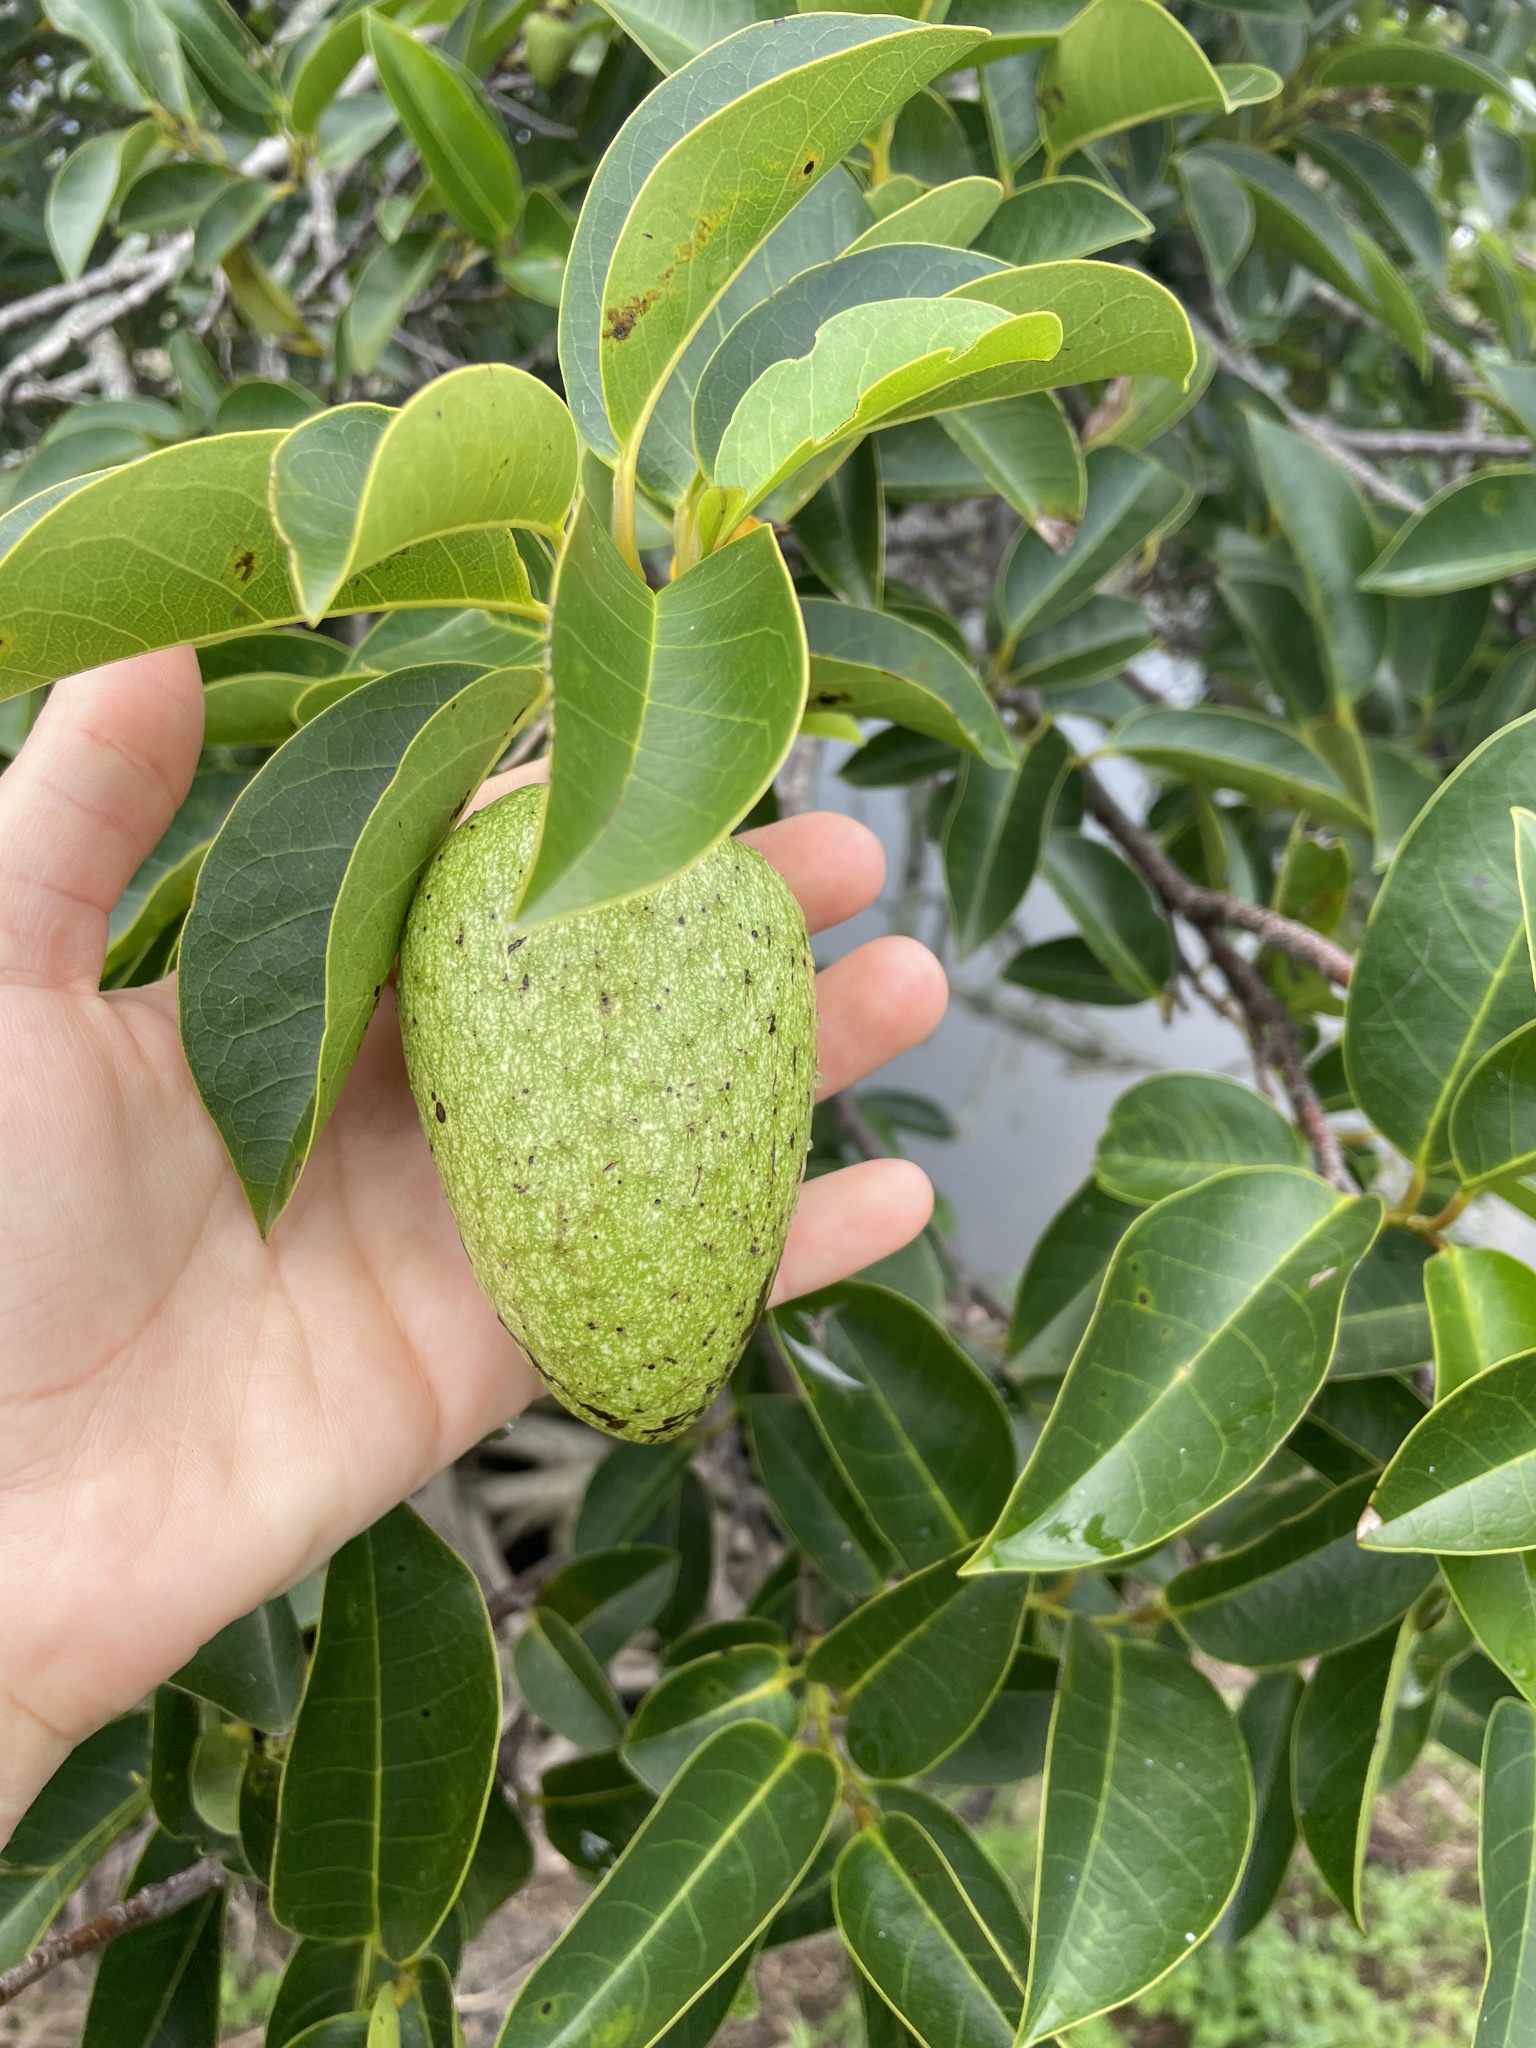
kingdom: Plantae
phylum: Tracheophyta
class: Magnoliopsida
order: Magnoliales
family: Annonaceae
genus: Annona
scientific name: Annona glabra
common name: Monkey apple
